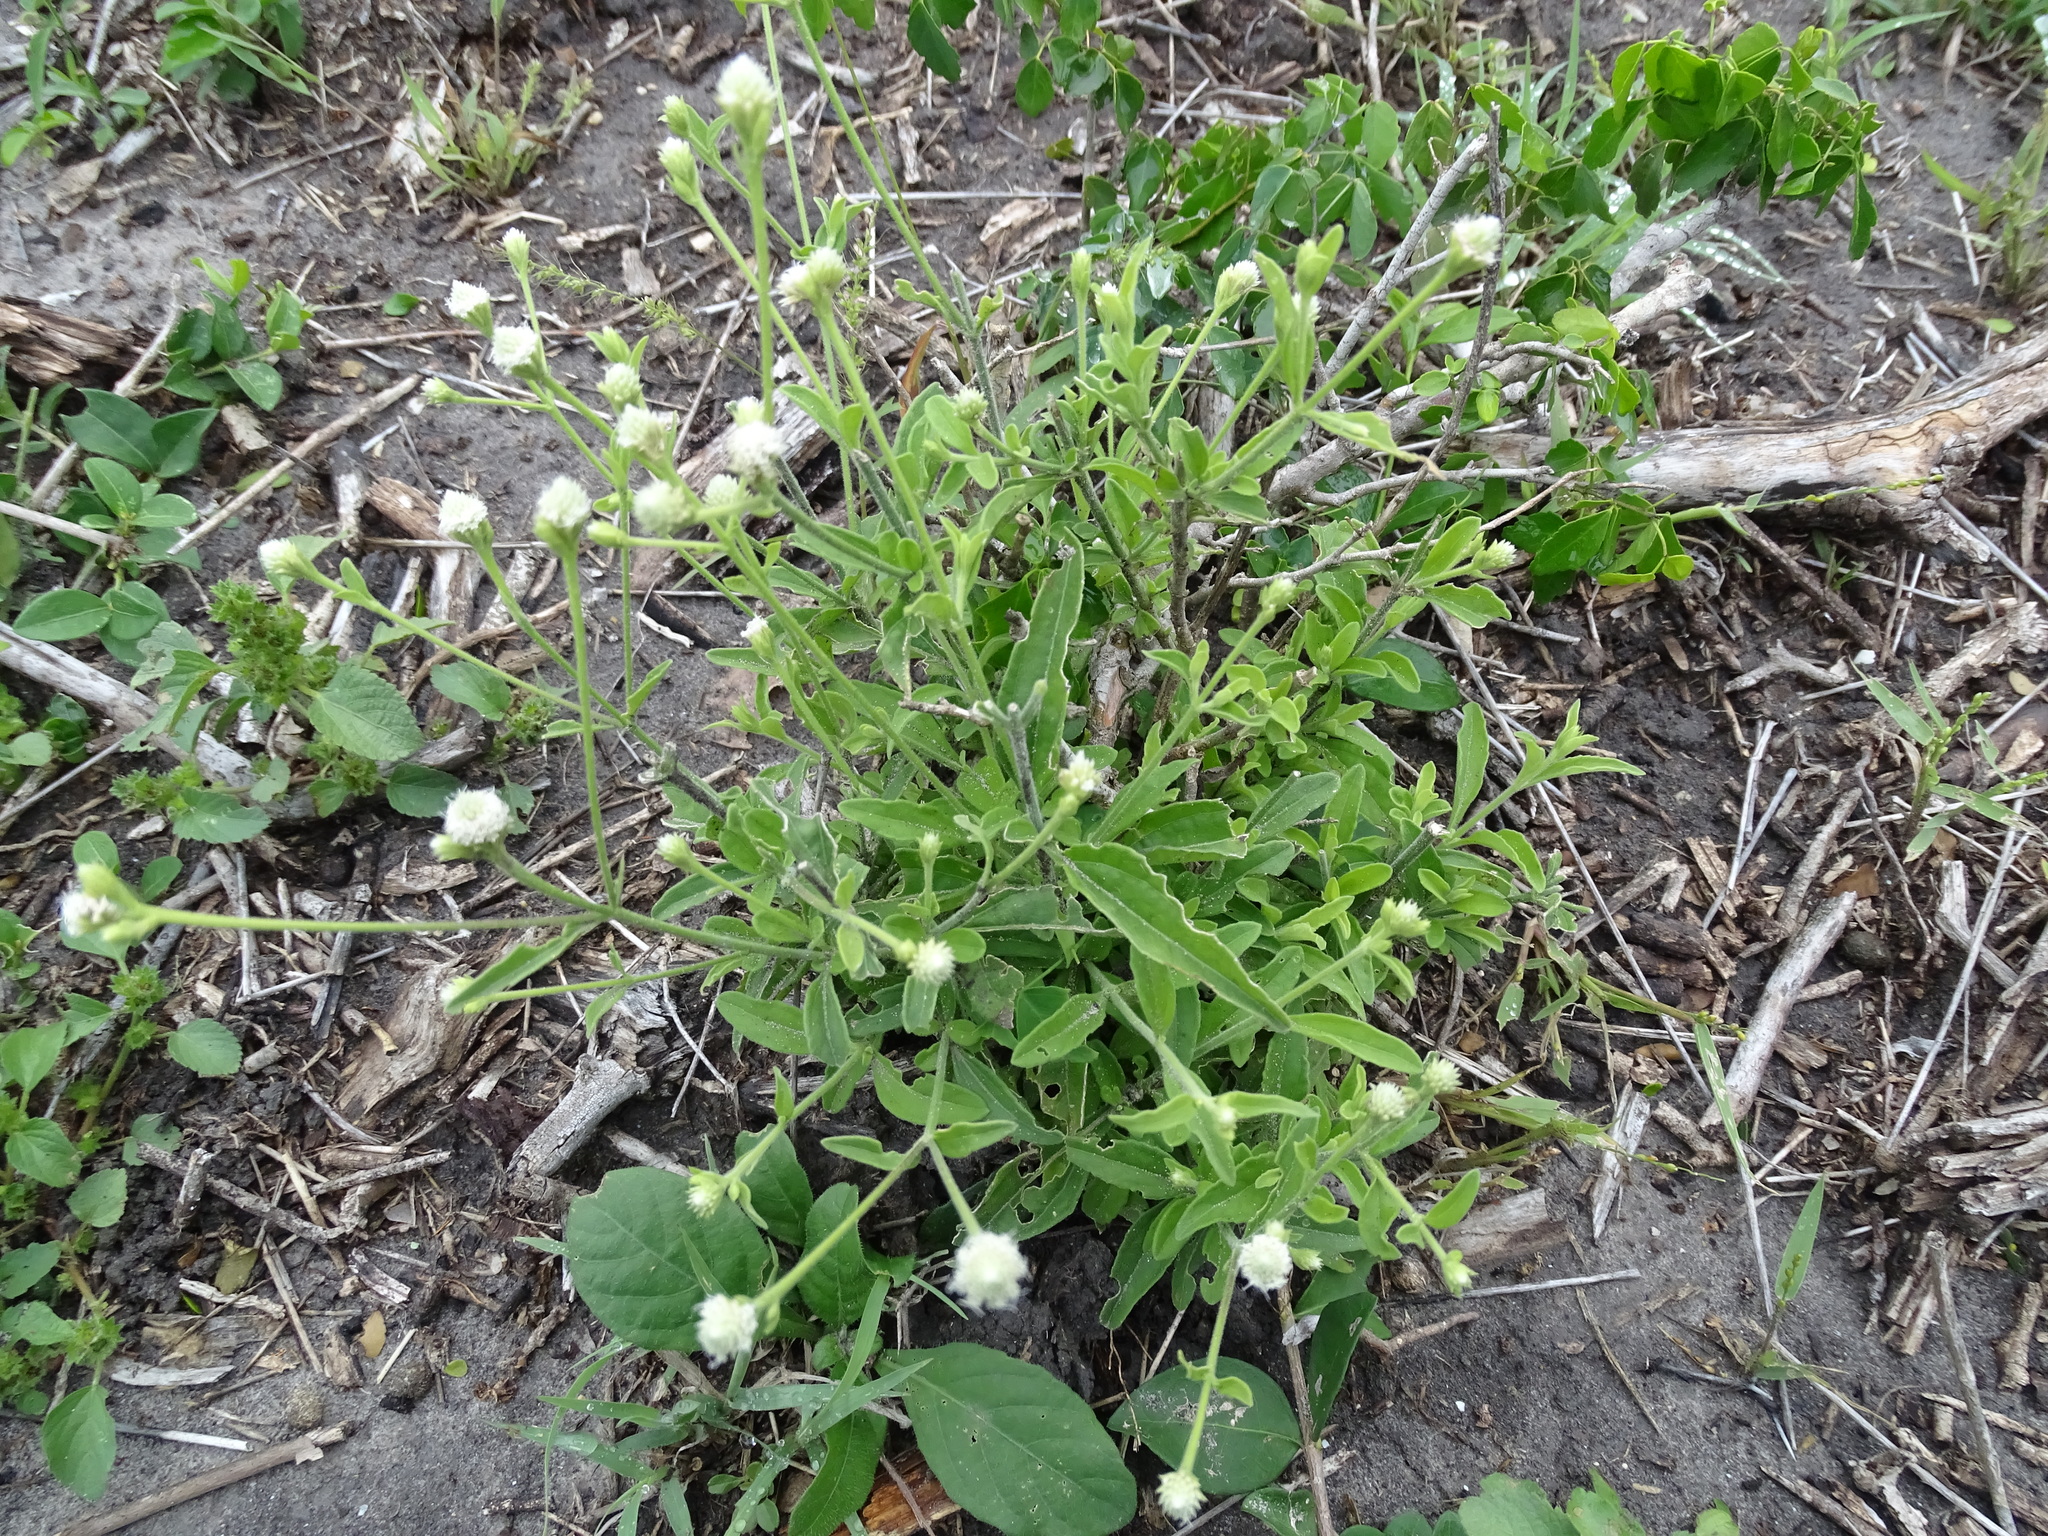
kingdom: Plantae
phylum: Tracheophyta
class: Magnoliopsida
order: Asterales
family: Asteraceae
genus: Isocarpha
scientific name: Isocarpha oppositifolia
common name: Rio grande pearlhead
